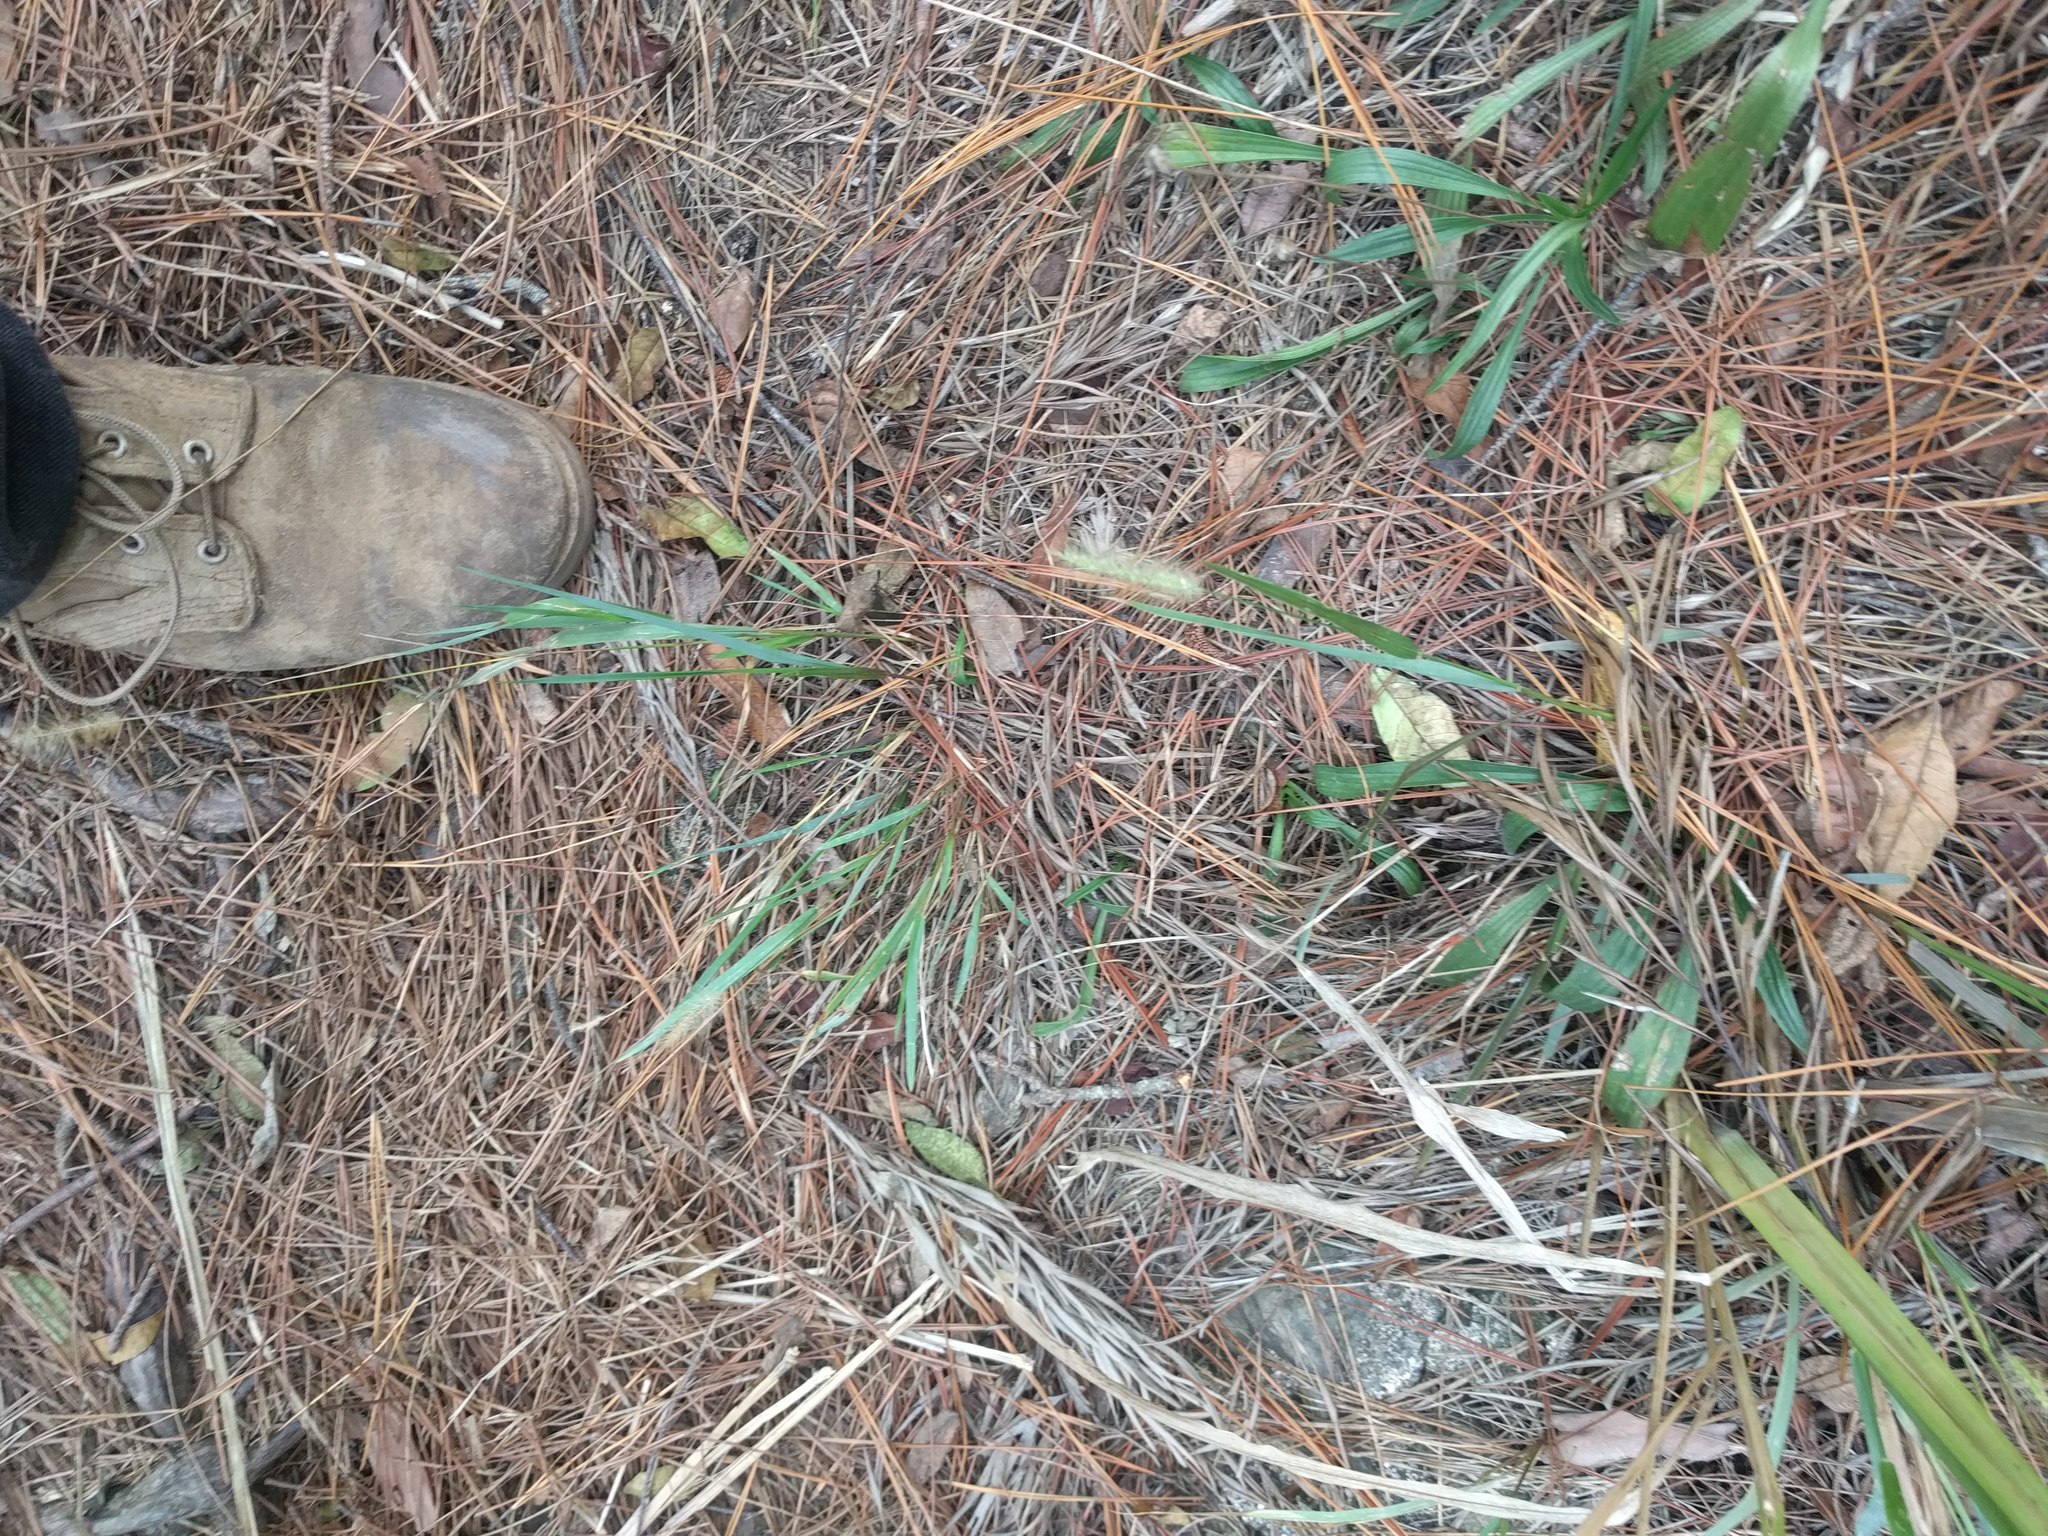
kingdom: Plantae
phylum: Tracheophyta
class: Magnoliopsida
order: Lamiales
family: Plantaginaceae
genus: Plantago
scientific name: Plantago lanceolata
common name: Ribwort plantain
